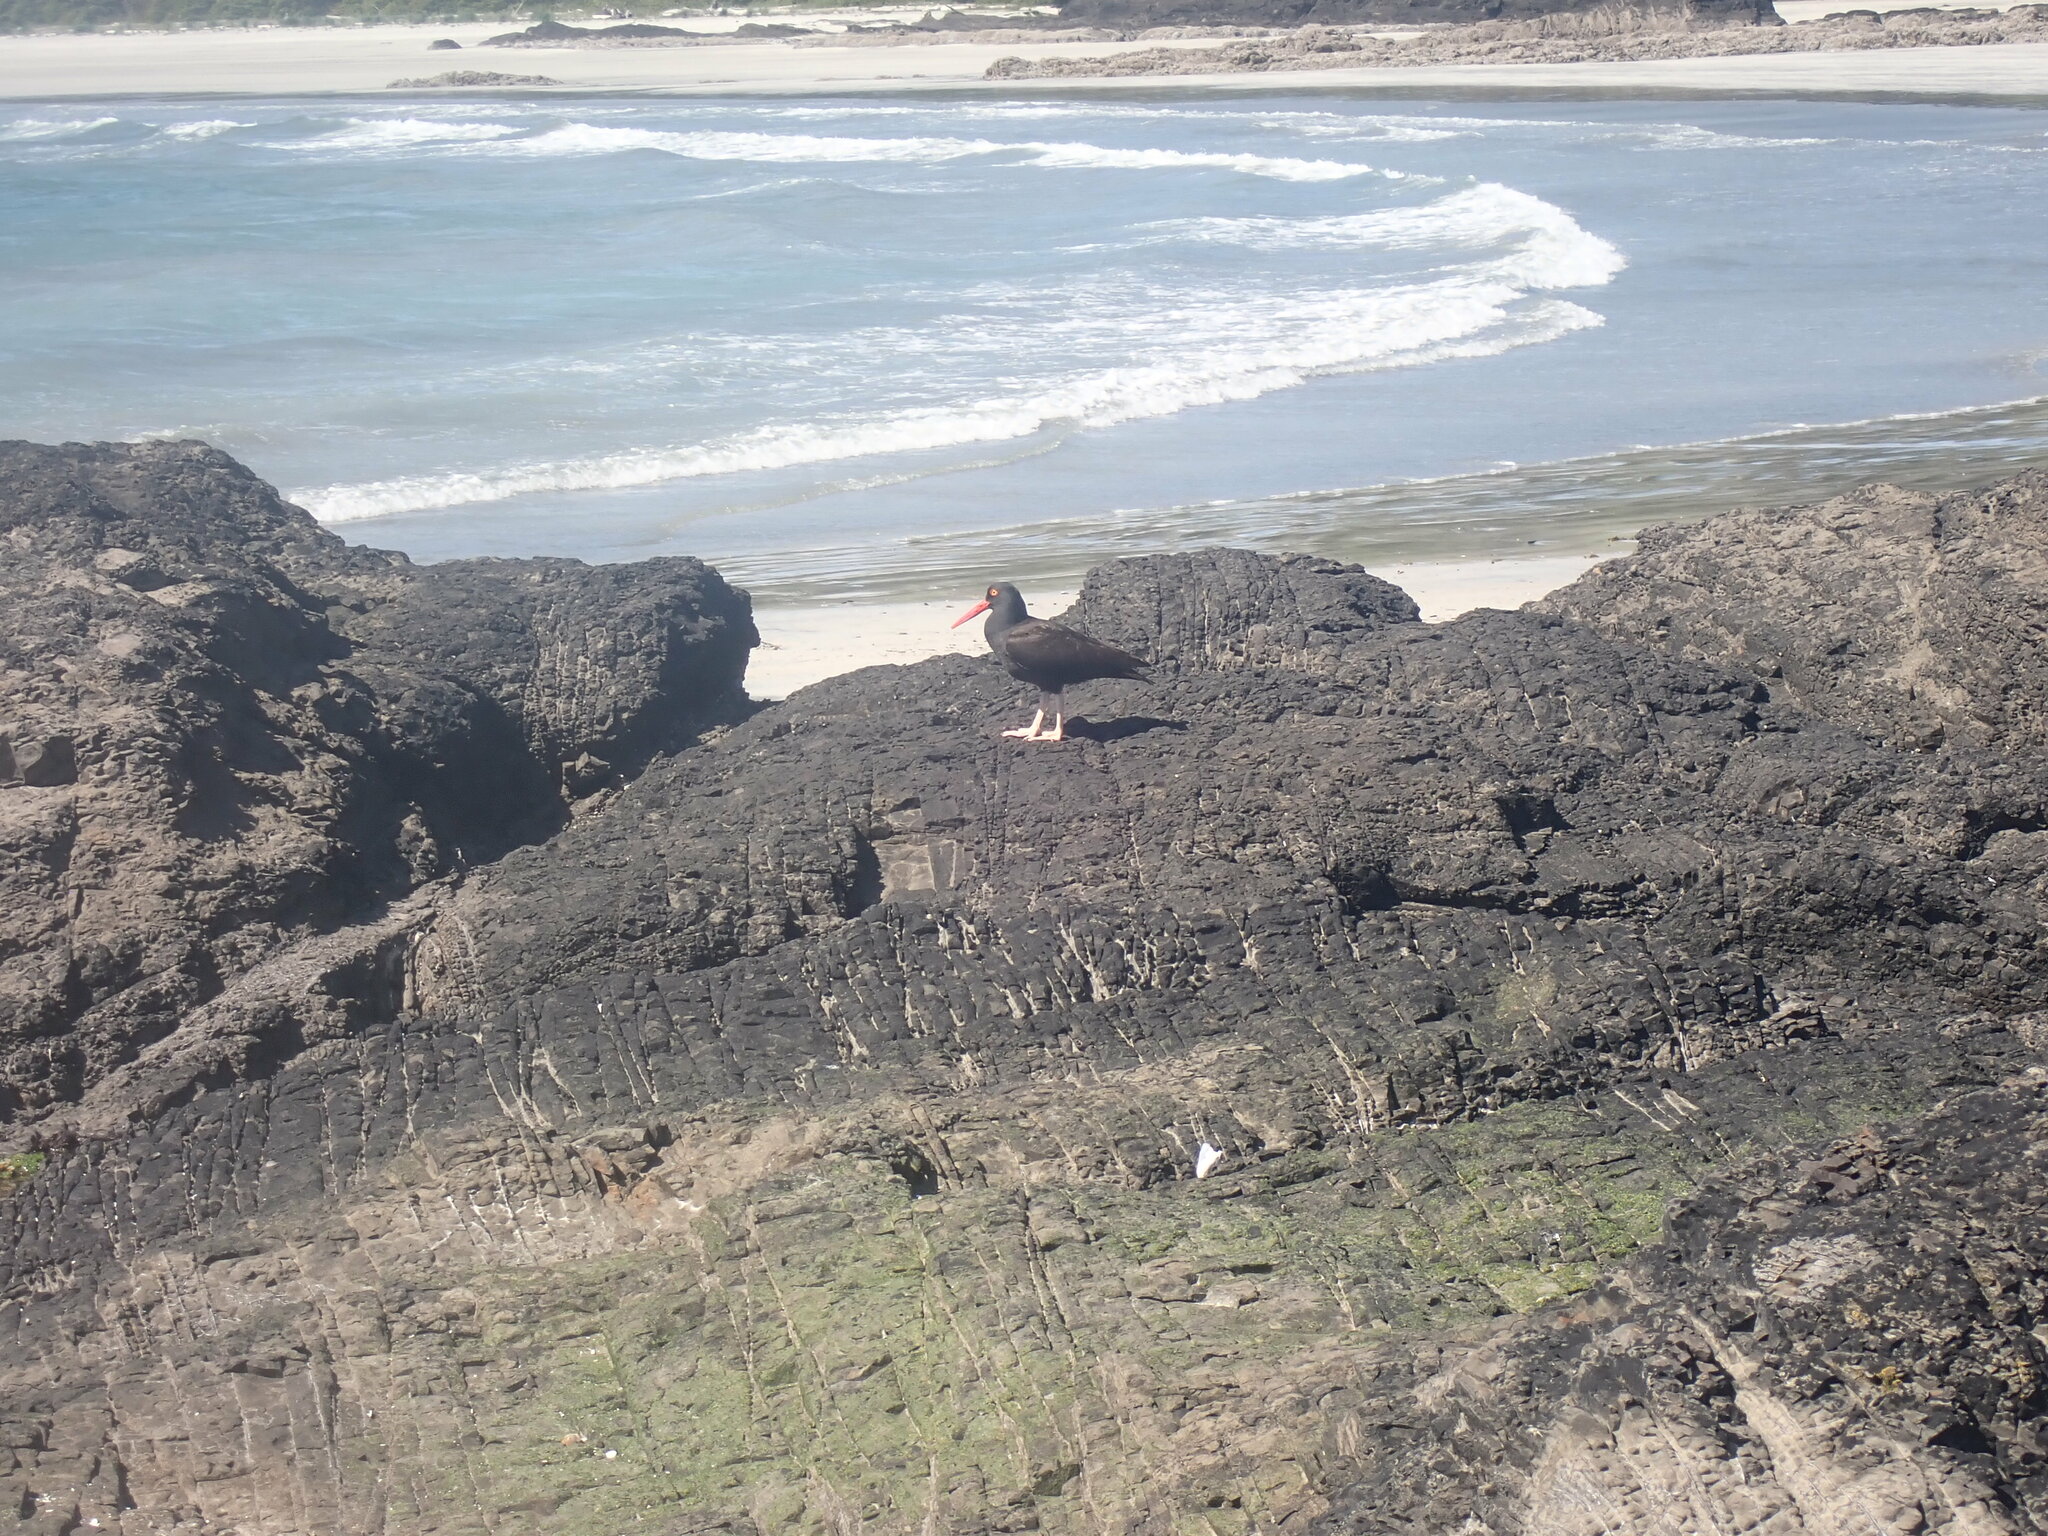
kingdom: Animalia
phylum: Chordata
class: Aves
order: Charadriiformes
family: Haematopodidae
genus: Haematopus
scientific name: Haematopus bachmani
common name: Black oystercatcher
